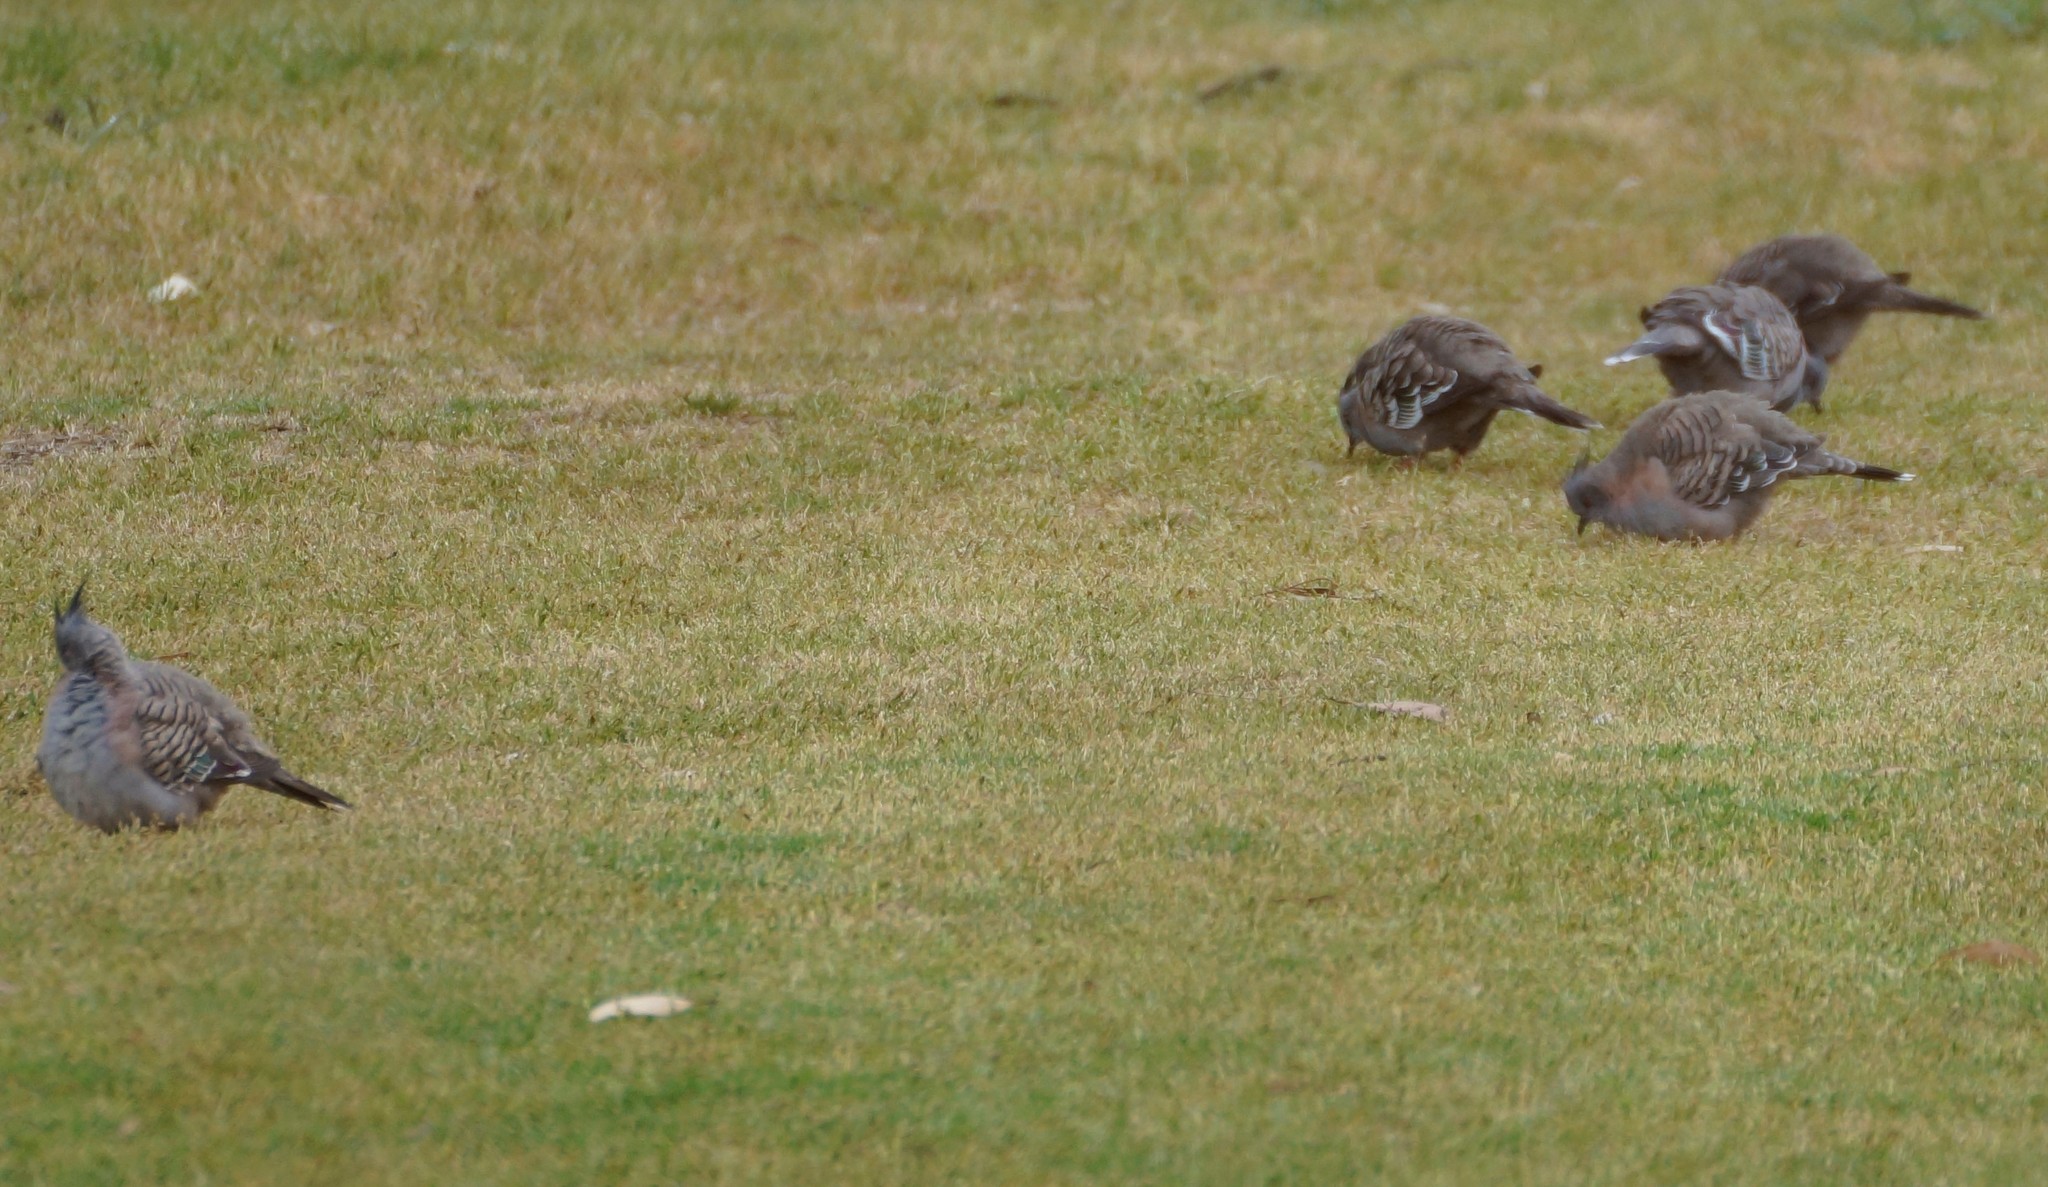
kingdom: Animalia
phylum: Chordata
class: Aves
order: Columbiformes
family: Columbidae
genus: Ocyphaps
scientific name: Ocyphaps lophotes
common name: Crested pigeon
